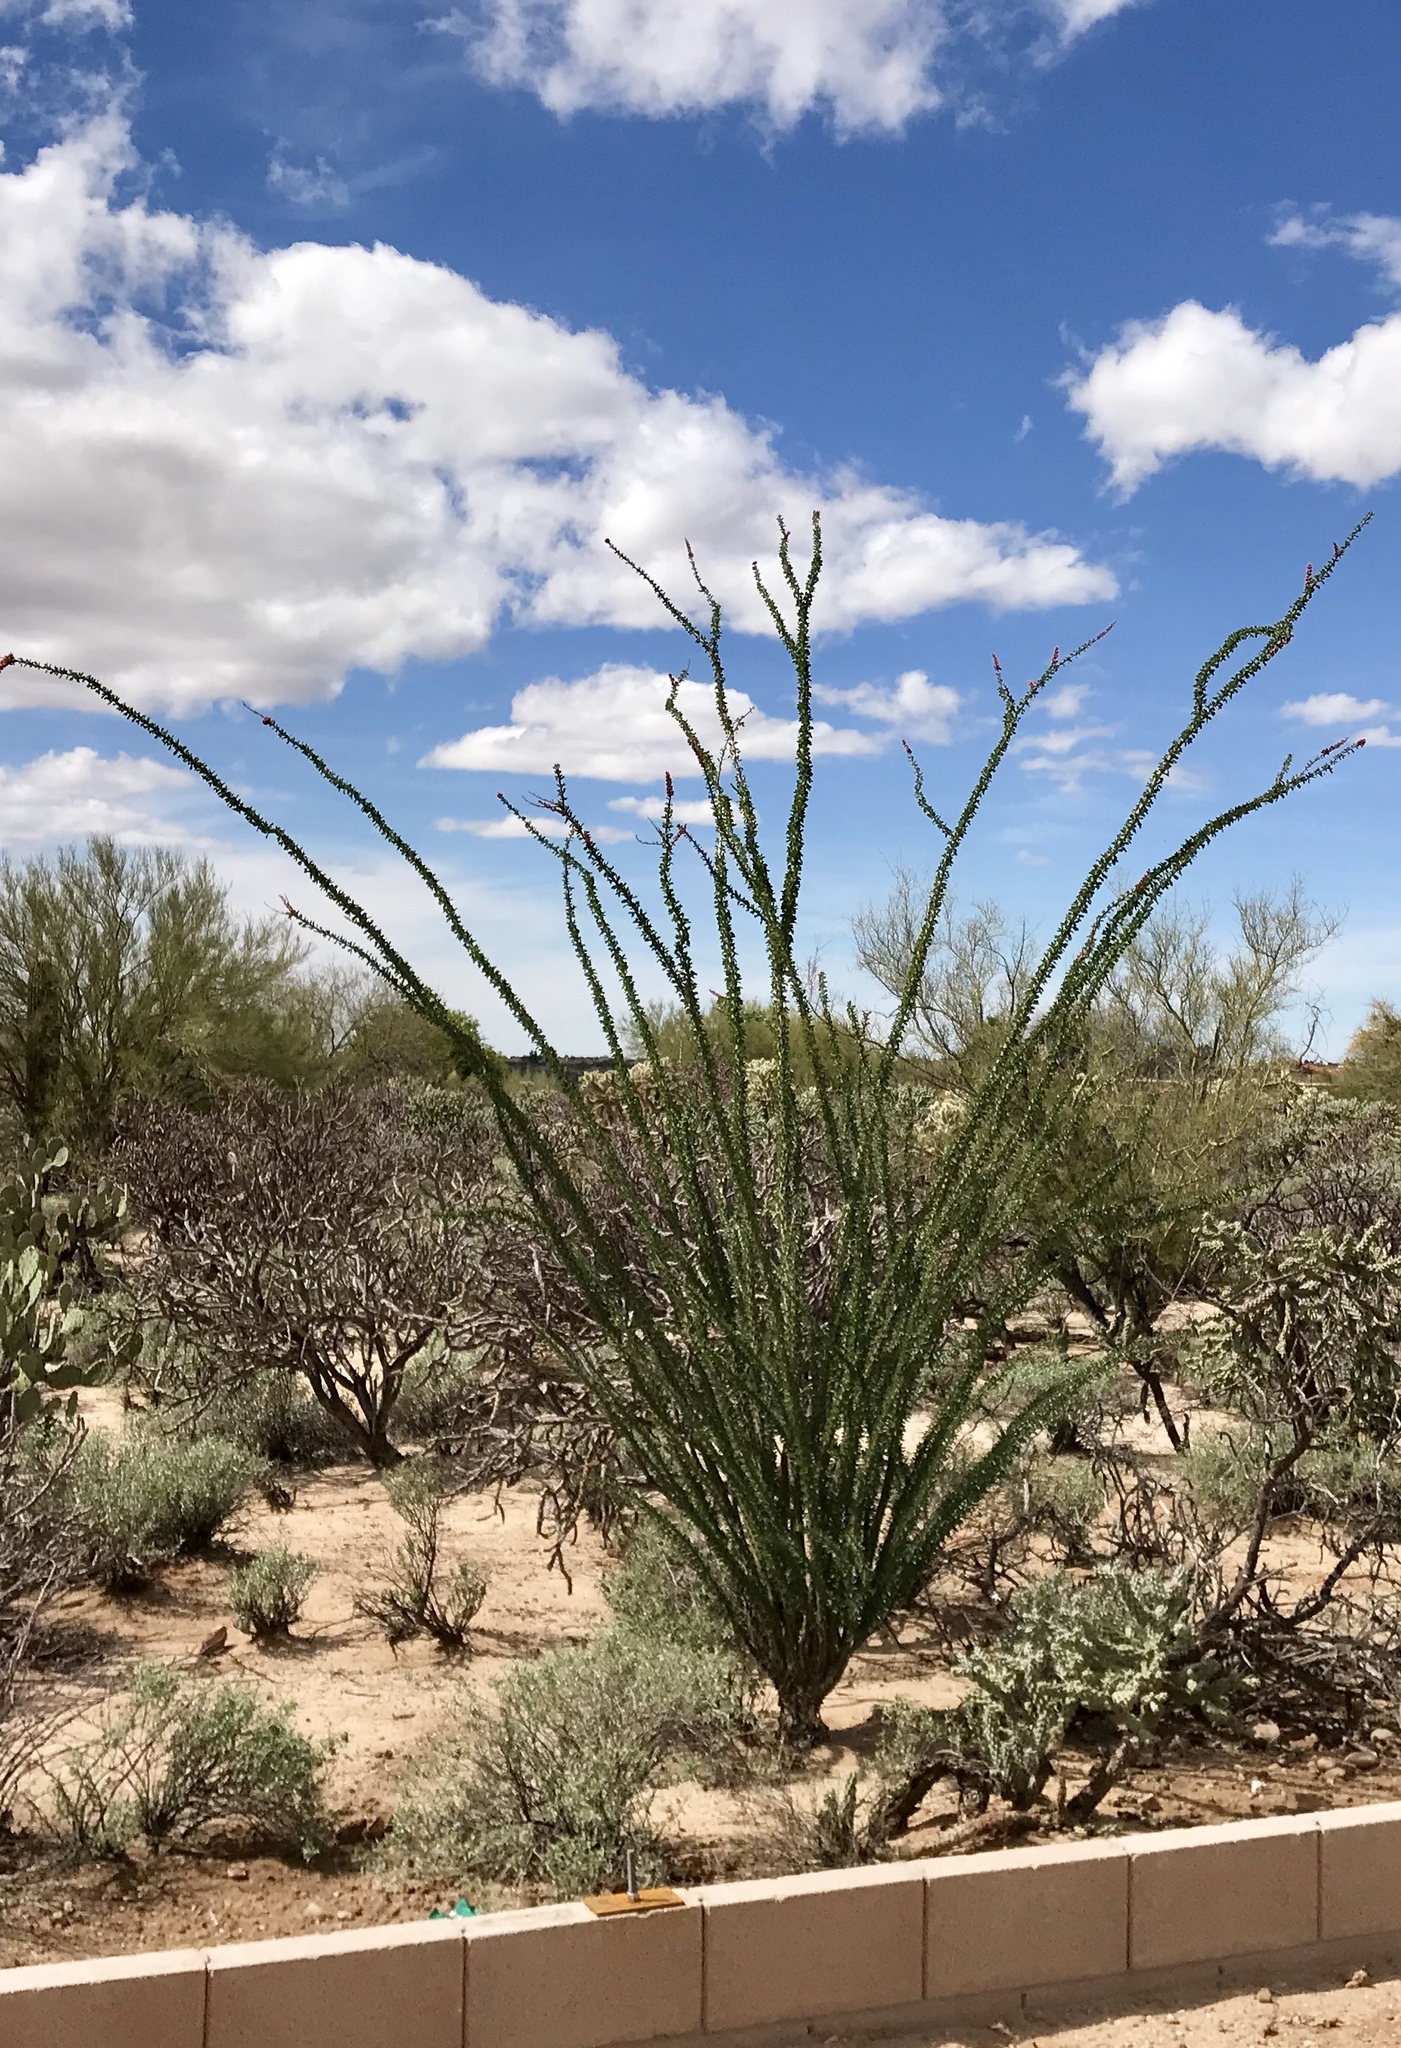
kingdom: Plantae
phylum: Tracheophyta
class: Magnoliopsida
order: Ericales
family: Fouquieriaceae
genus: Fouquieria
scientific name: Fouquieria splendens
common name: Vine-cactus
